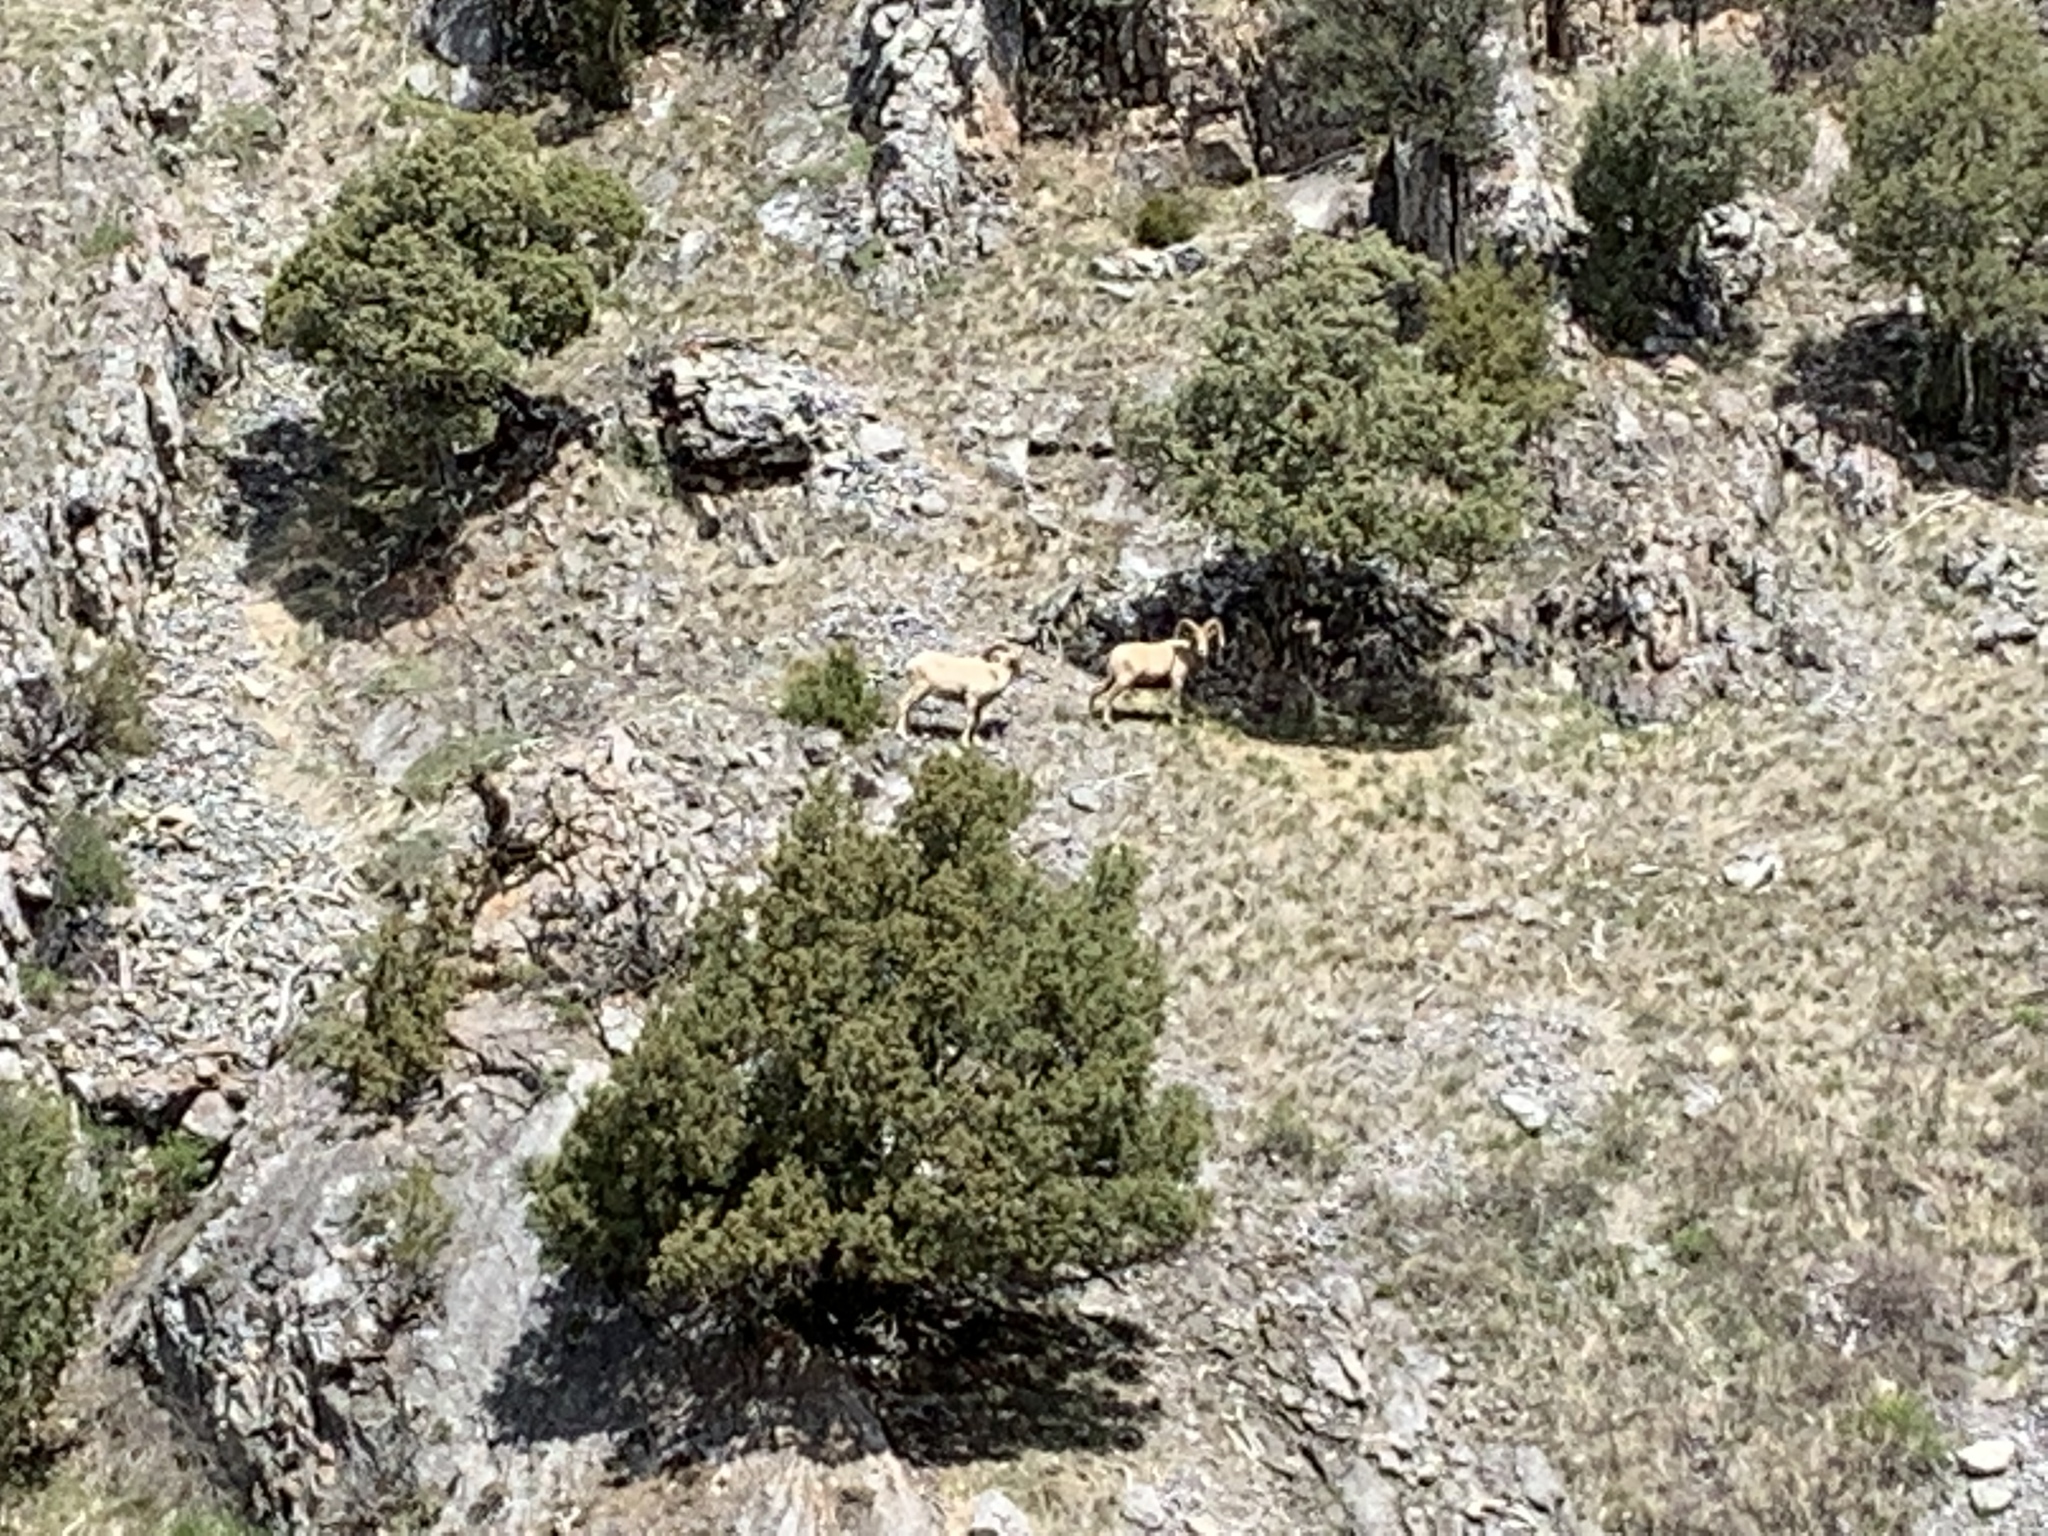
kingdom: Animalia
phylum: Chordata
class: Mammalia
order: Artiodactyla
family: Bovidae
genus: Ovis
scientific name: Ovis canadensis
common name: Bighorn sheep
